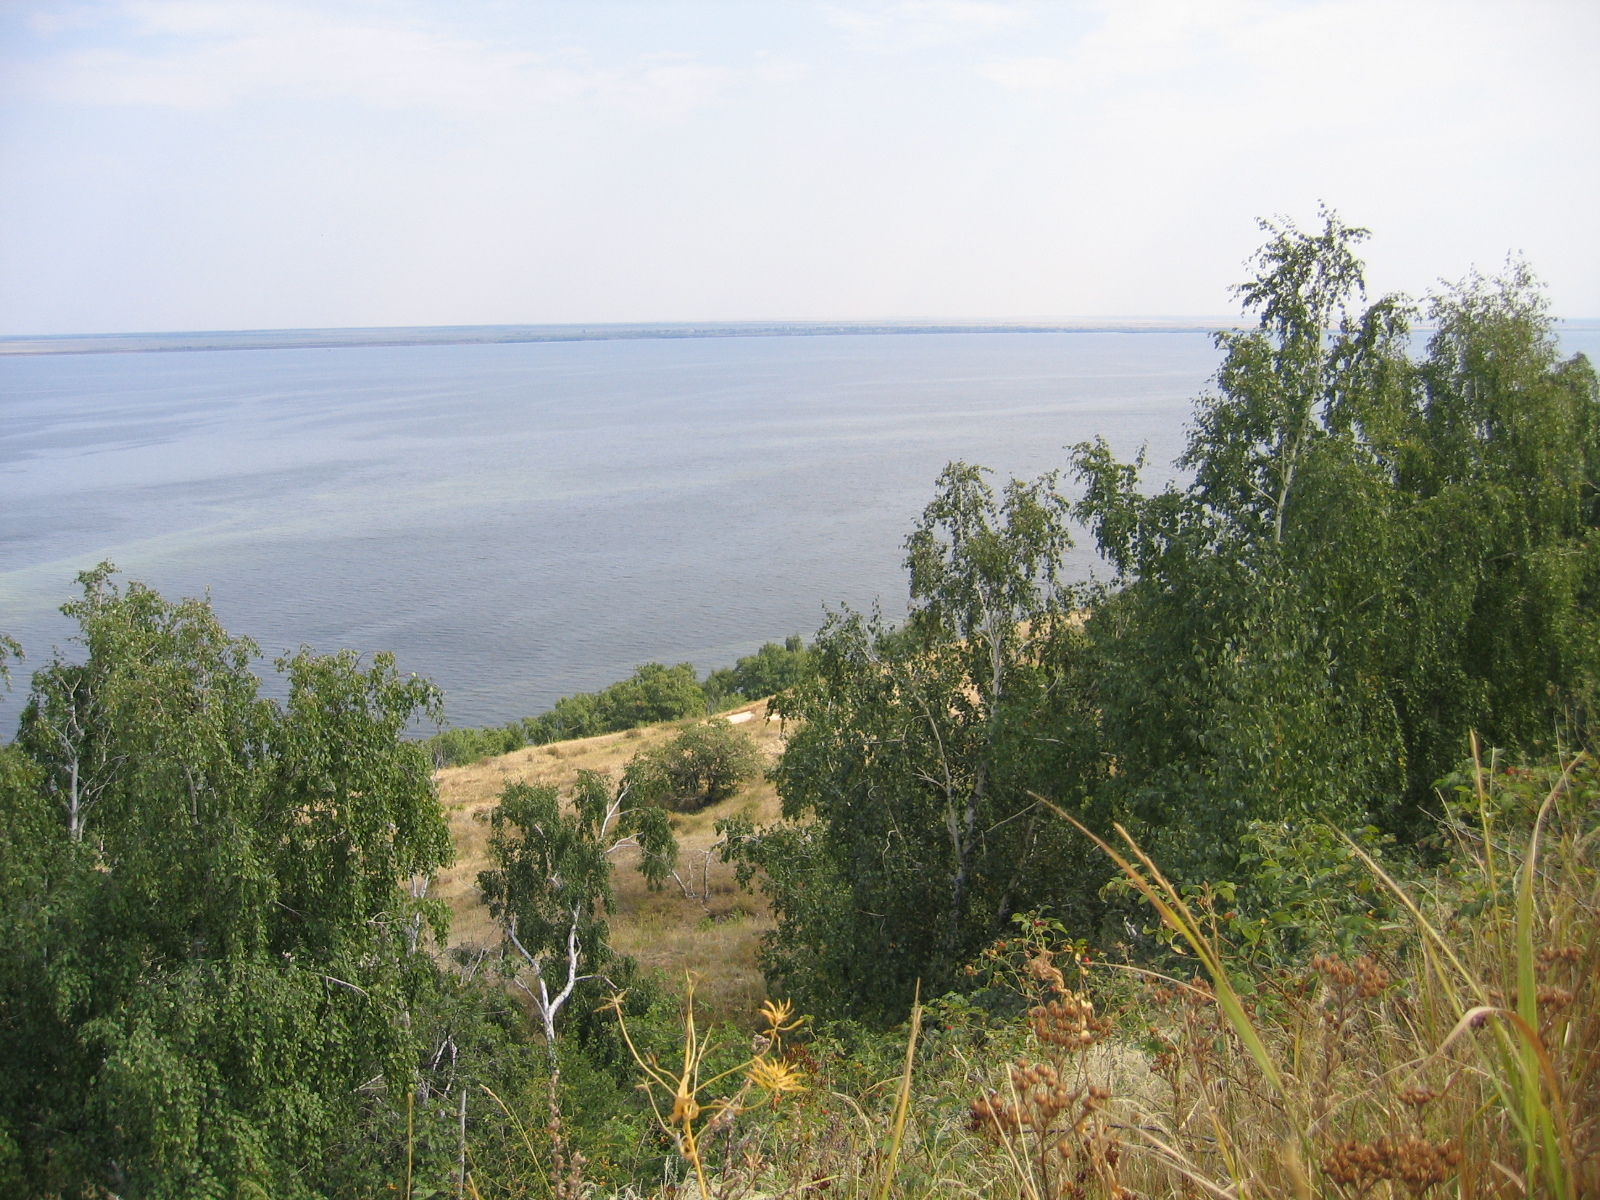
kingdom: Plantae
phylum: Tracheophyta
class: Magnoliopsida
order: Fagales
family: Betulaceae
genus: Betula
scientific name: Betula pendula
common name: Silver birch
